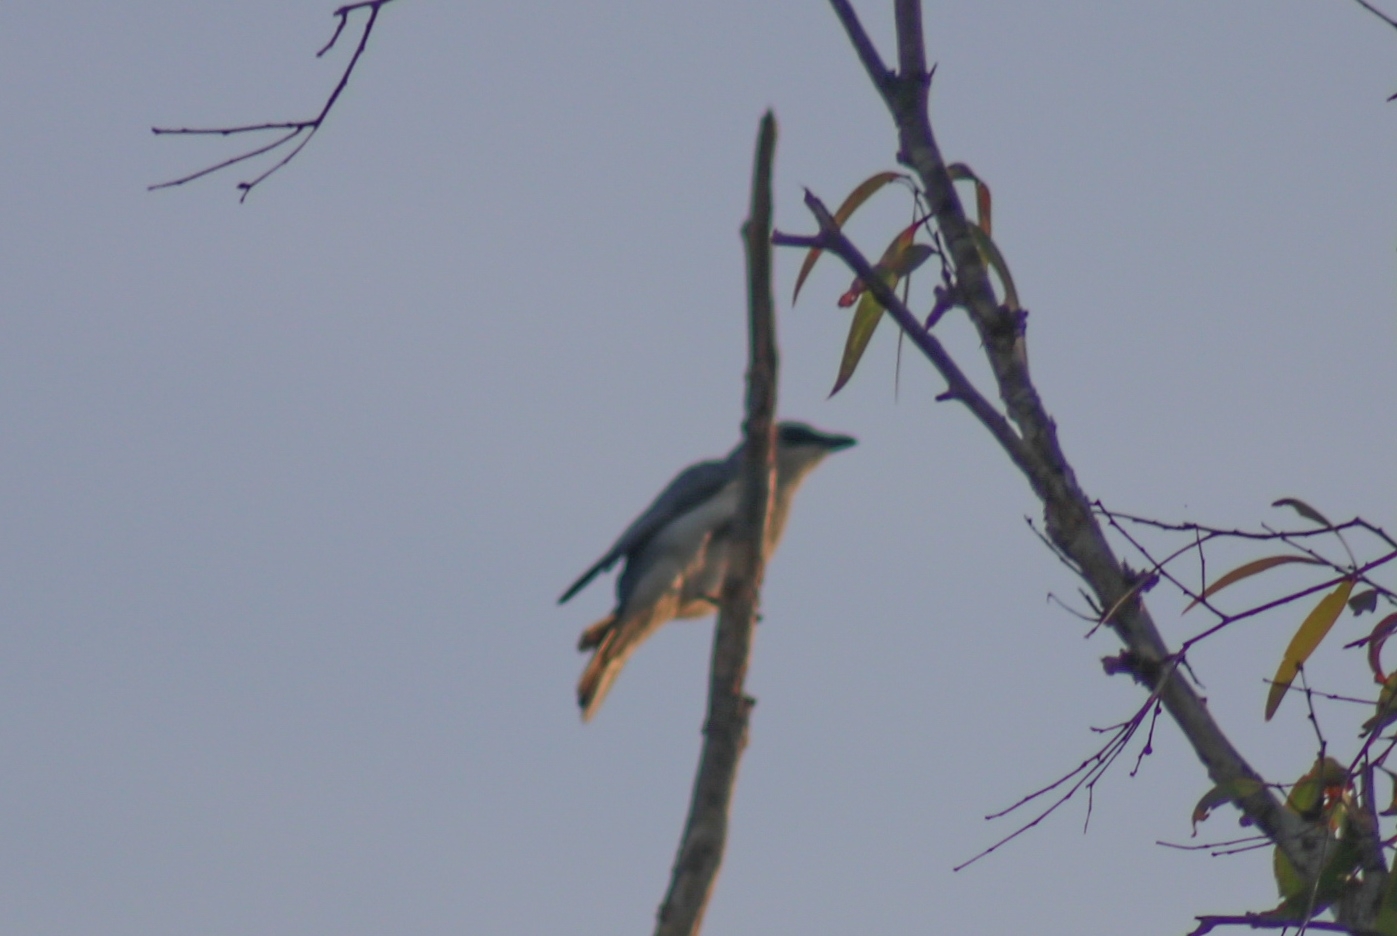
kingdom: Animalia
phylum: Chordata
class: Aves
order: Passeriformes
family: Campephagidae
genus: Coracina
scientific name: Coracina papuensis
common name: White-bellied cuckooshrike
